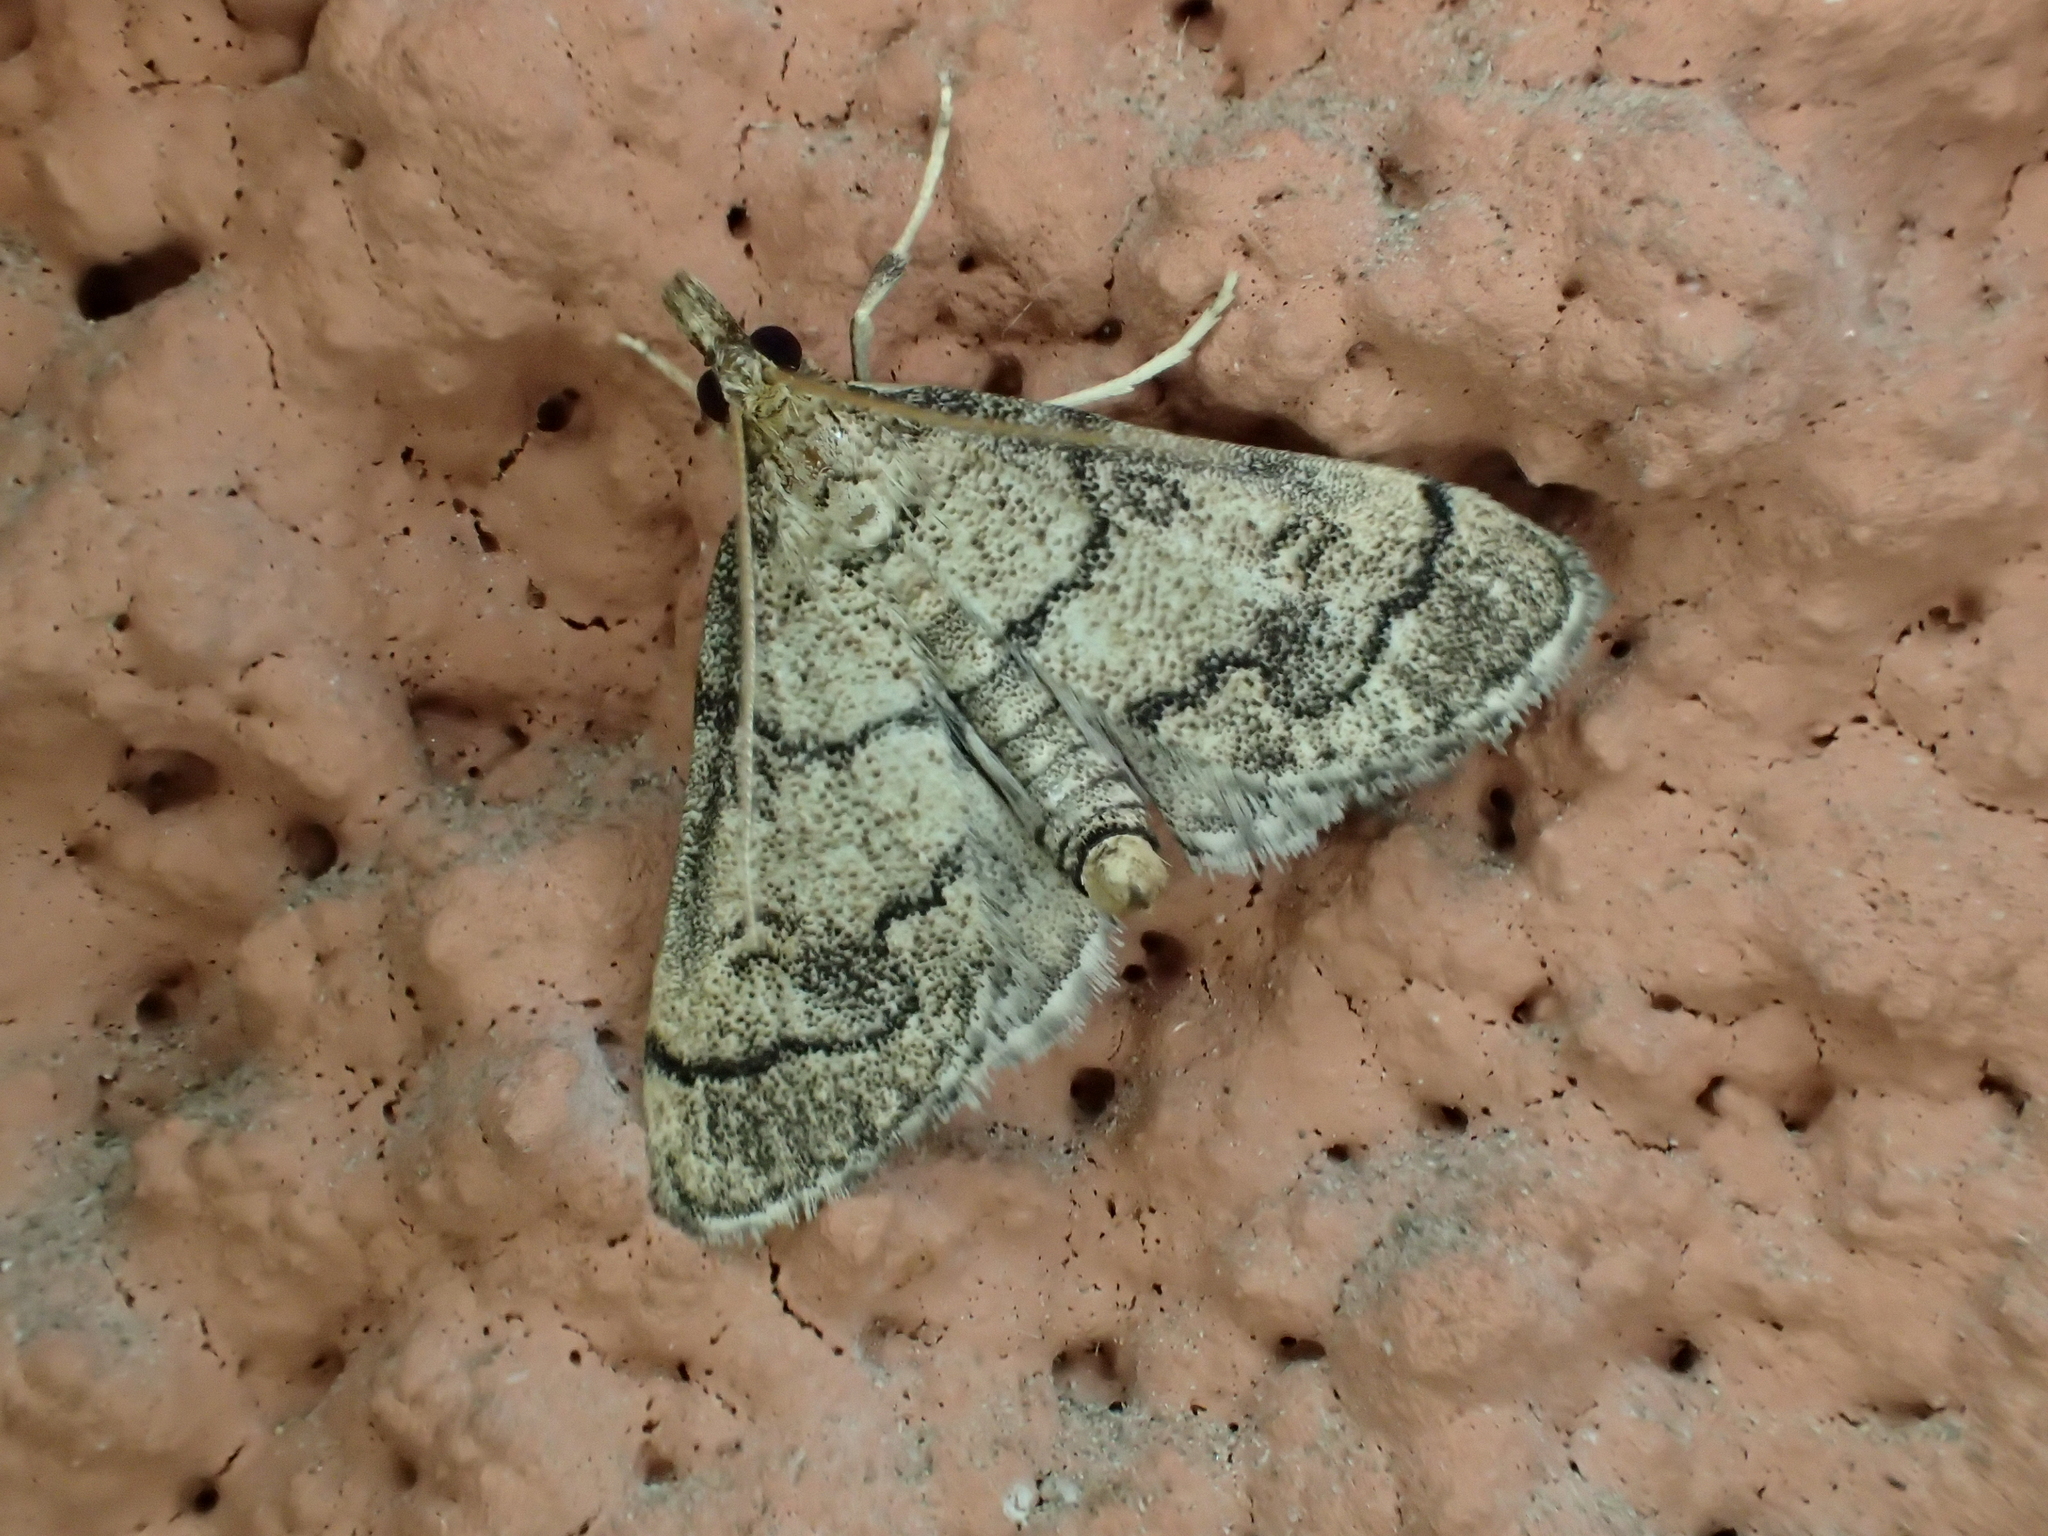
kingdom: Animalia
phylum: Arthropoda
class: Insecta
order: Lepidoptera
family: Crambidae
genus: Metasia
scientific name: Metasia cuencalis
